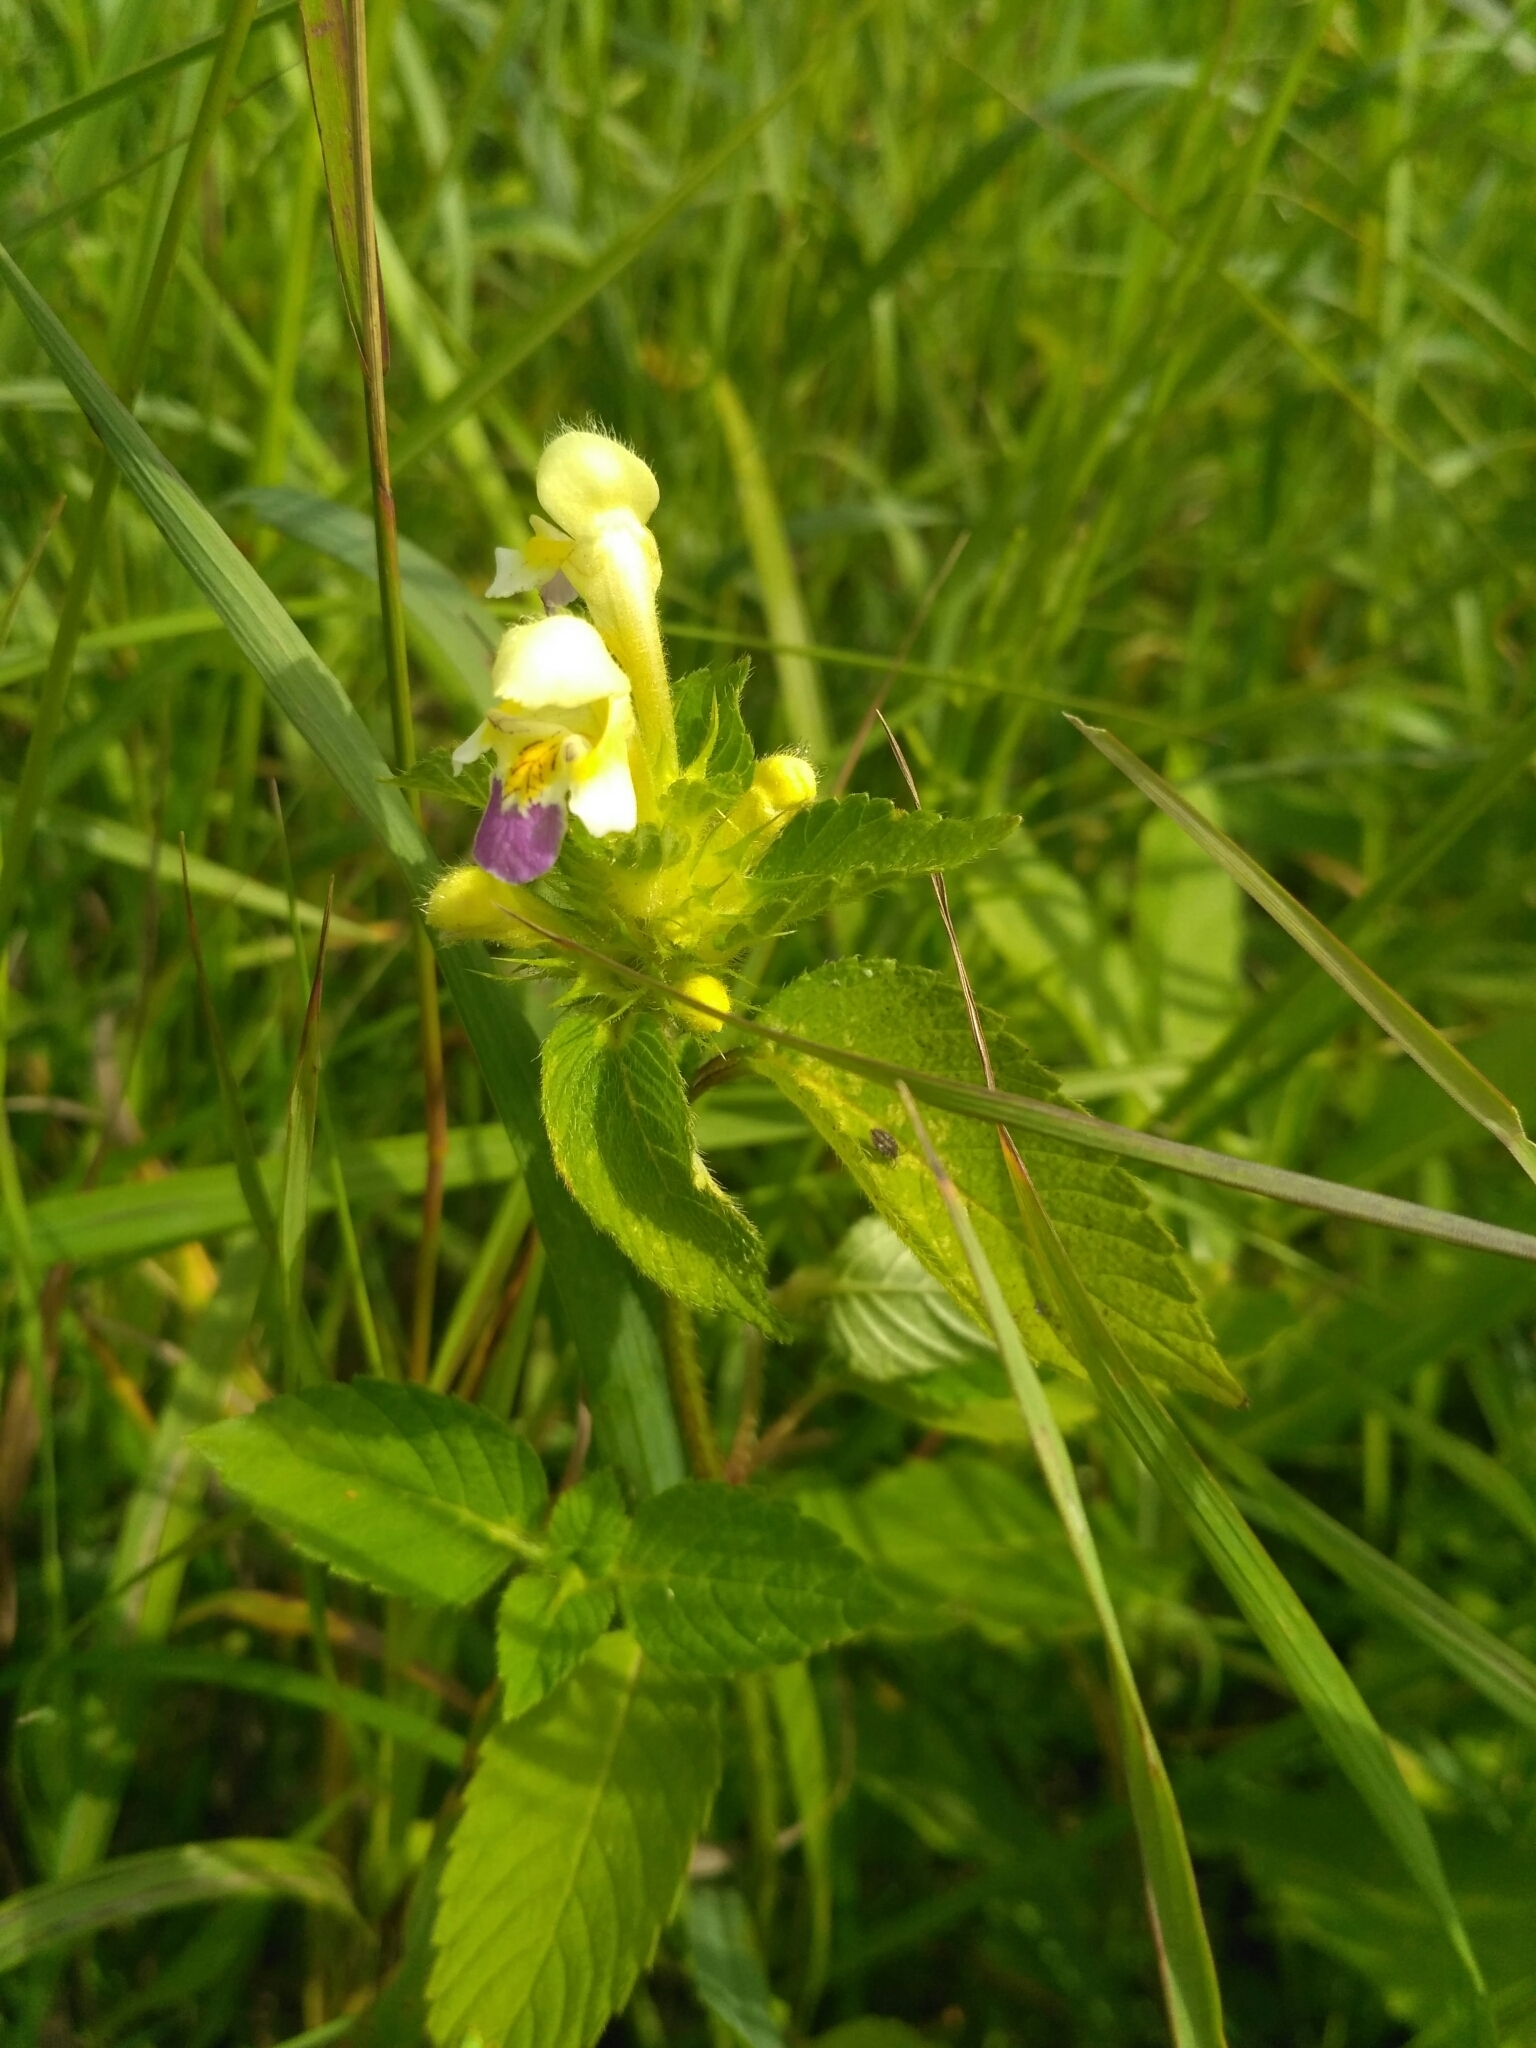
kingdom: Plantae
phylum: Tracheophyta
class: Magnoliopsida
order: Lamiales
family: Lamiaceae
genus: Galeopsis
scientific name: Galeopsis speciosa
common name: Large-flowered hemp-nettle
